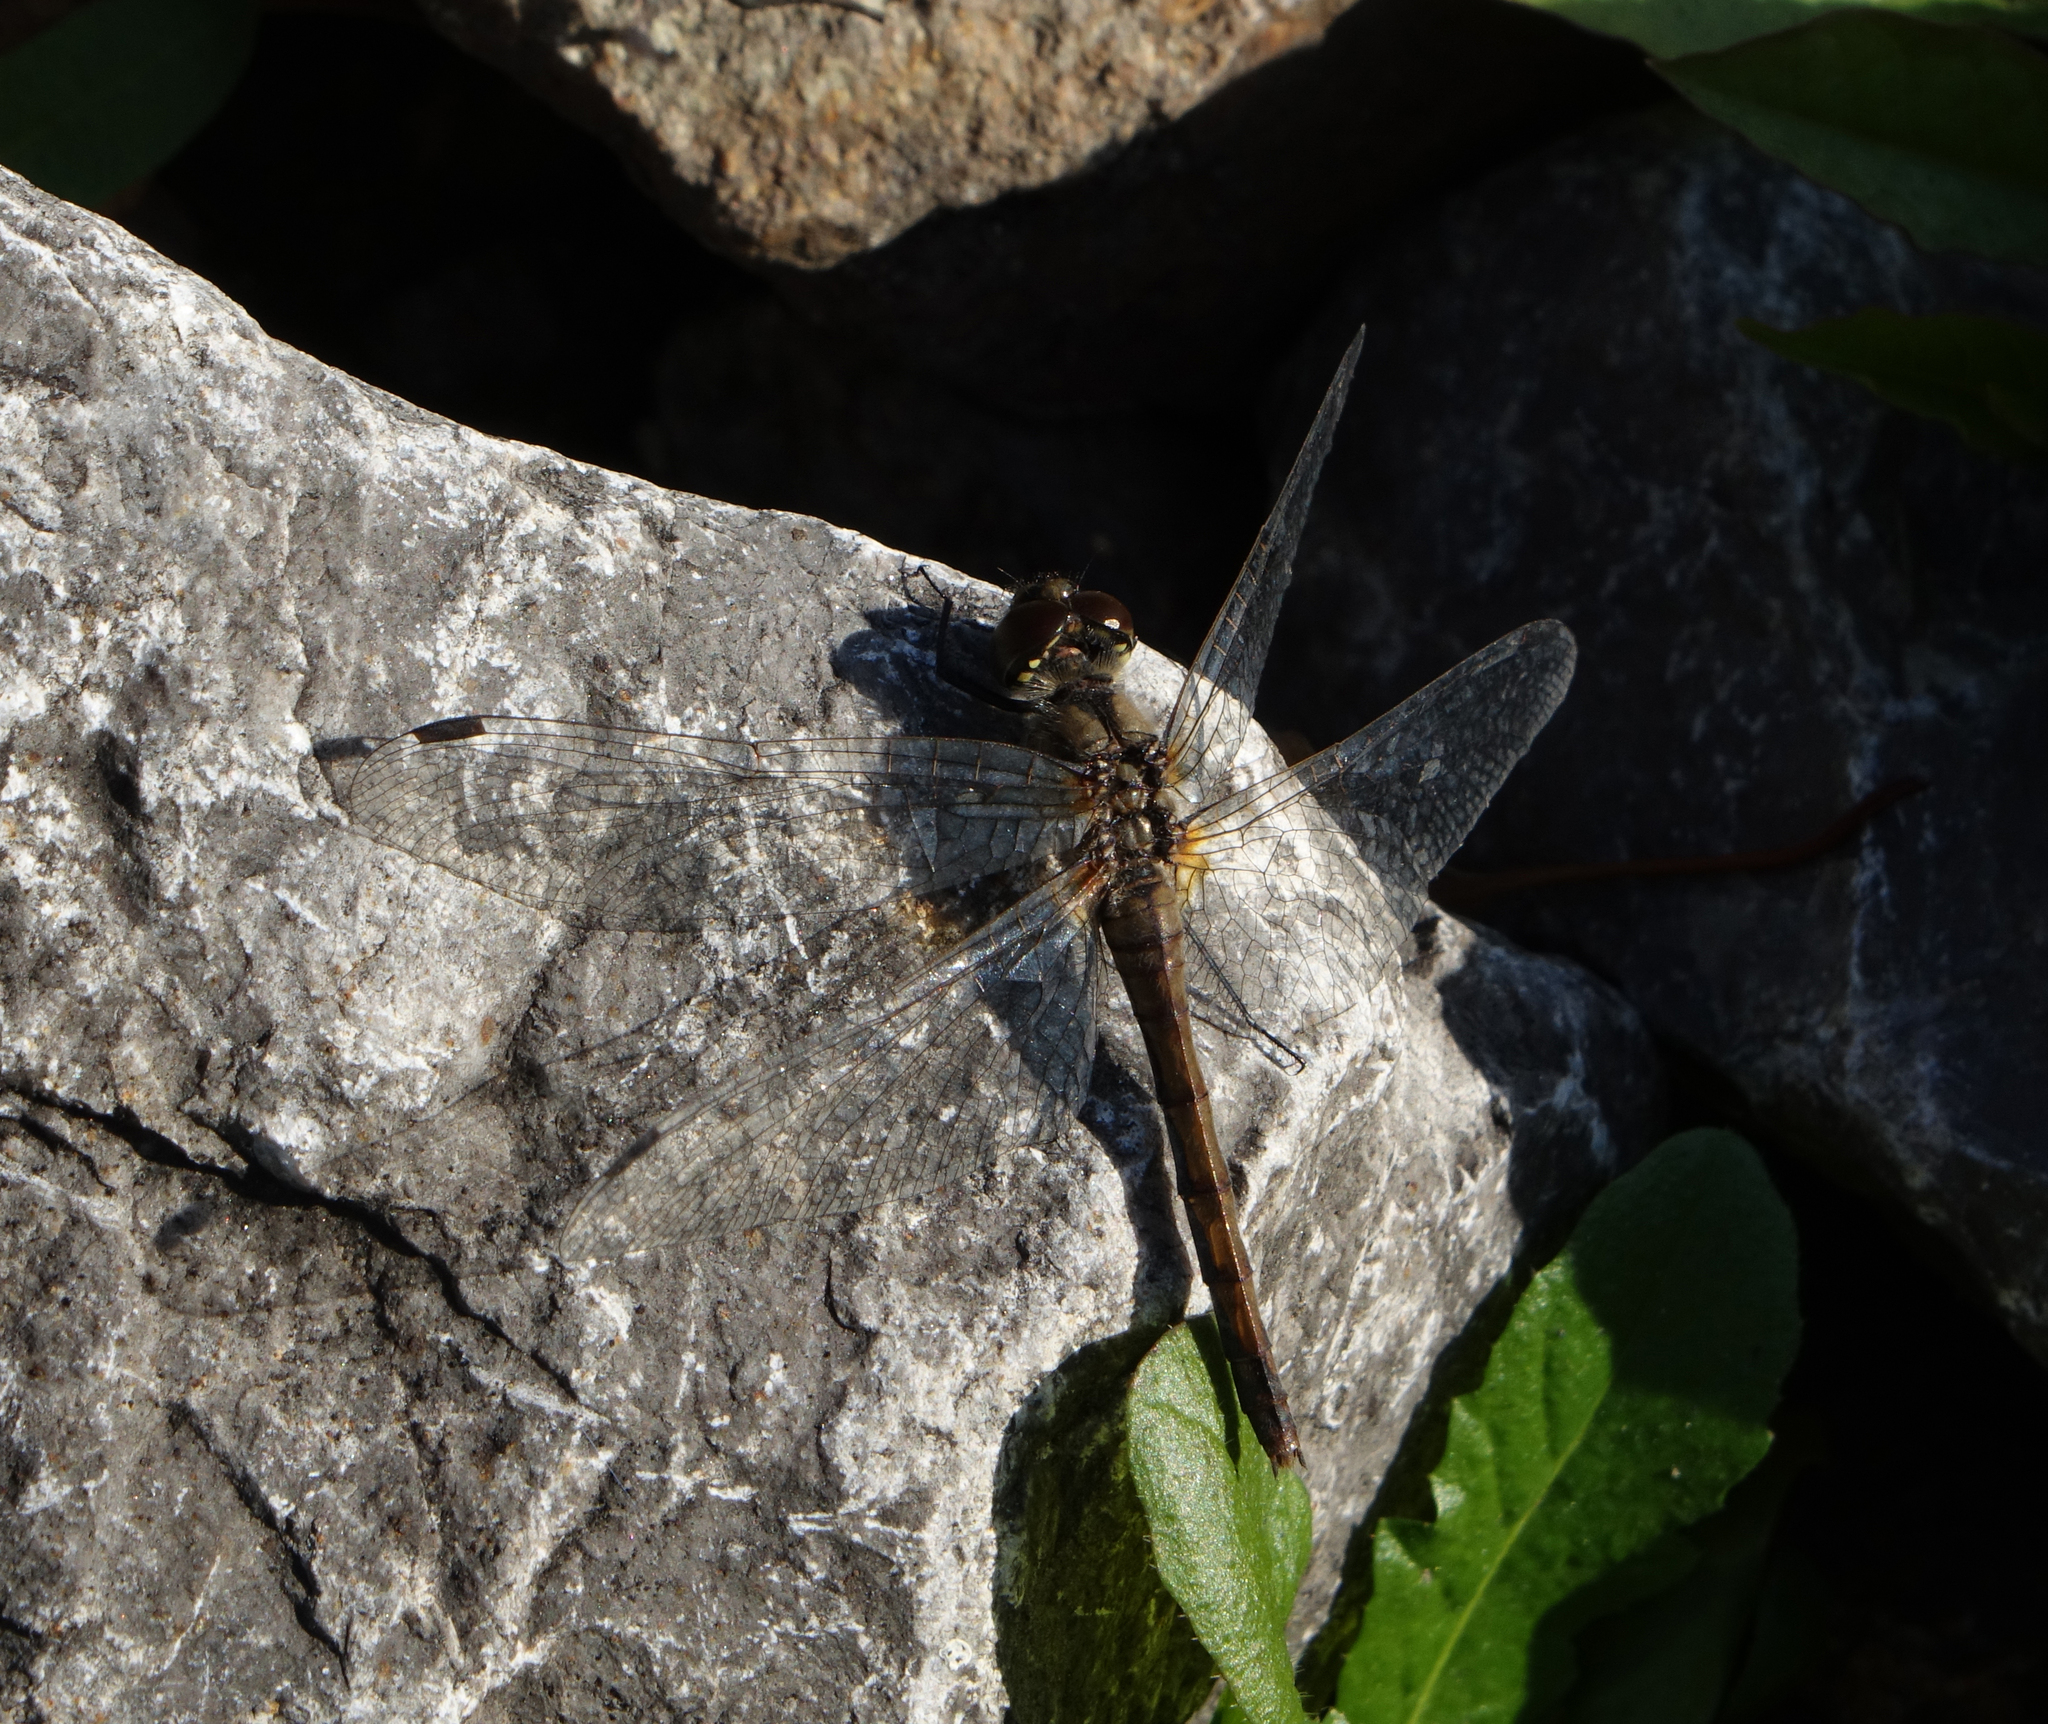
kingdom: Animalia
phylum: Arthropoda
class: Insecta
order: Odonata
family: Libellulidae
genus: Sympetrum
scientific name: Sympetrum danae
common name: Black darter
